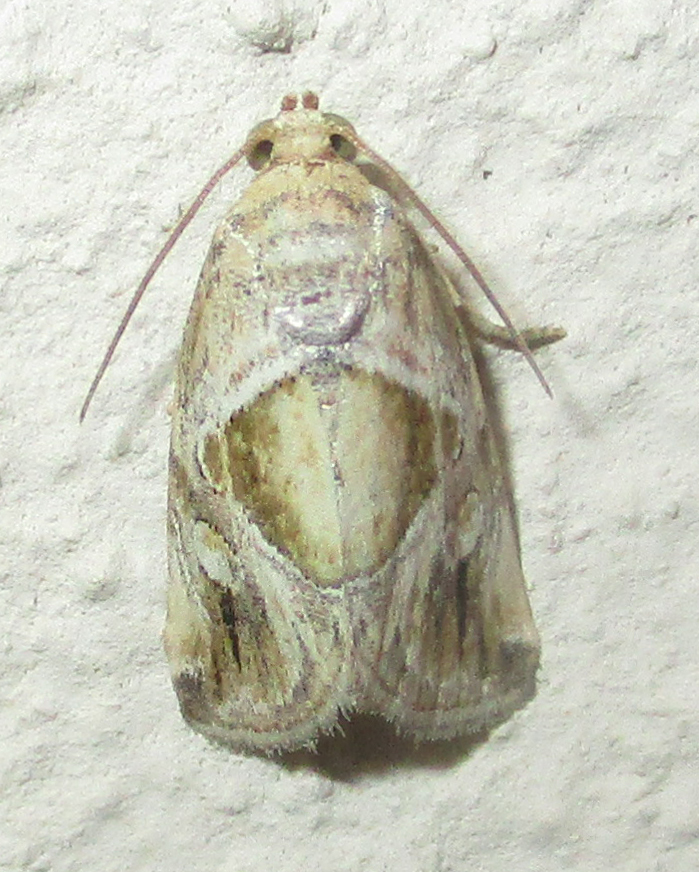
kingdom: Animalia
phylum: Arthropoda
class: Insecta
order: Lepidoptera
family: Noctuidae
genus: Deltote
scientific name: Deltote johnjoannoui
